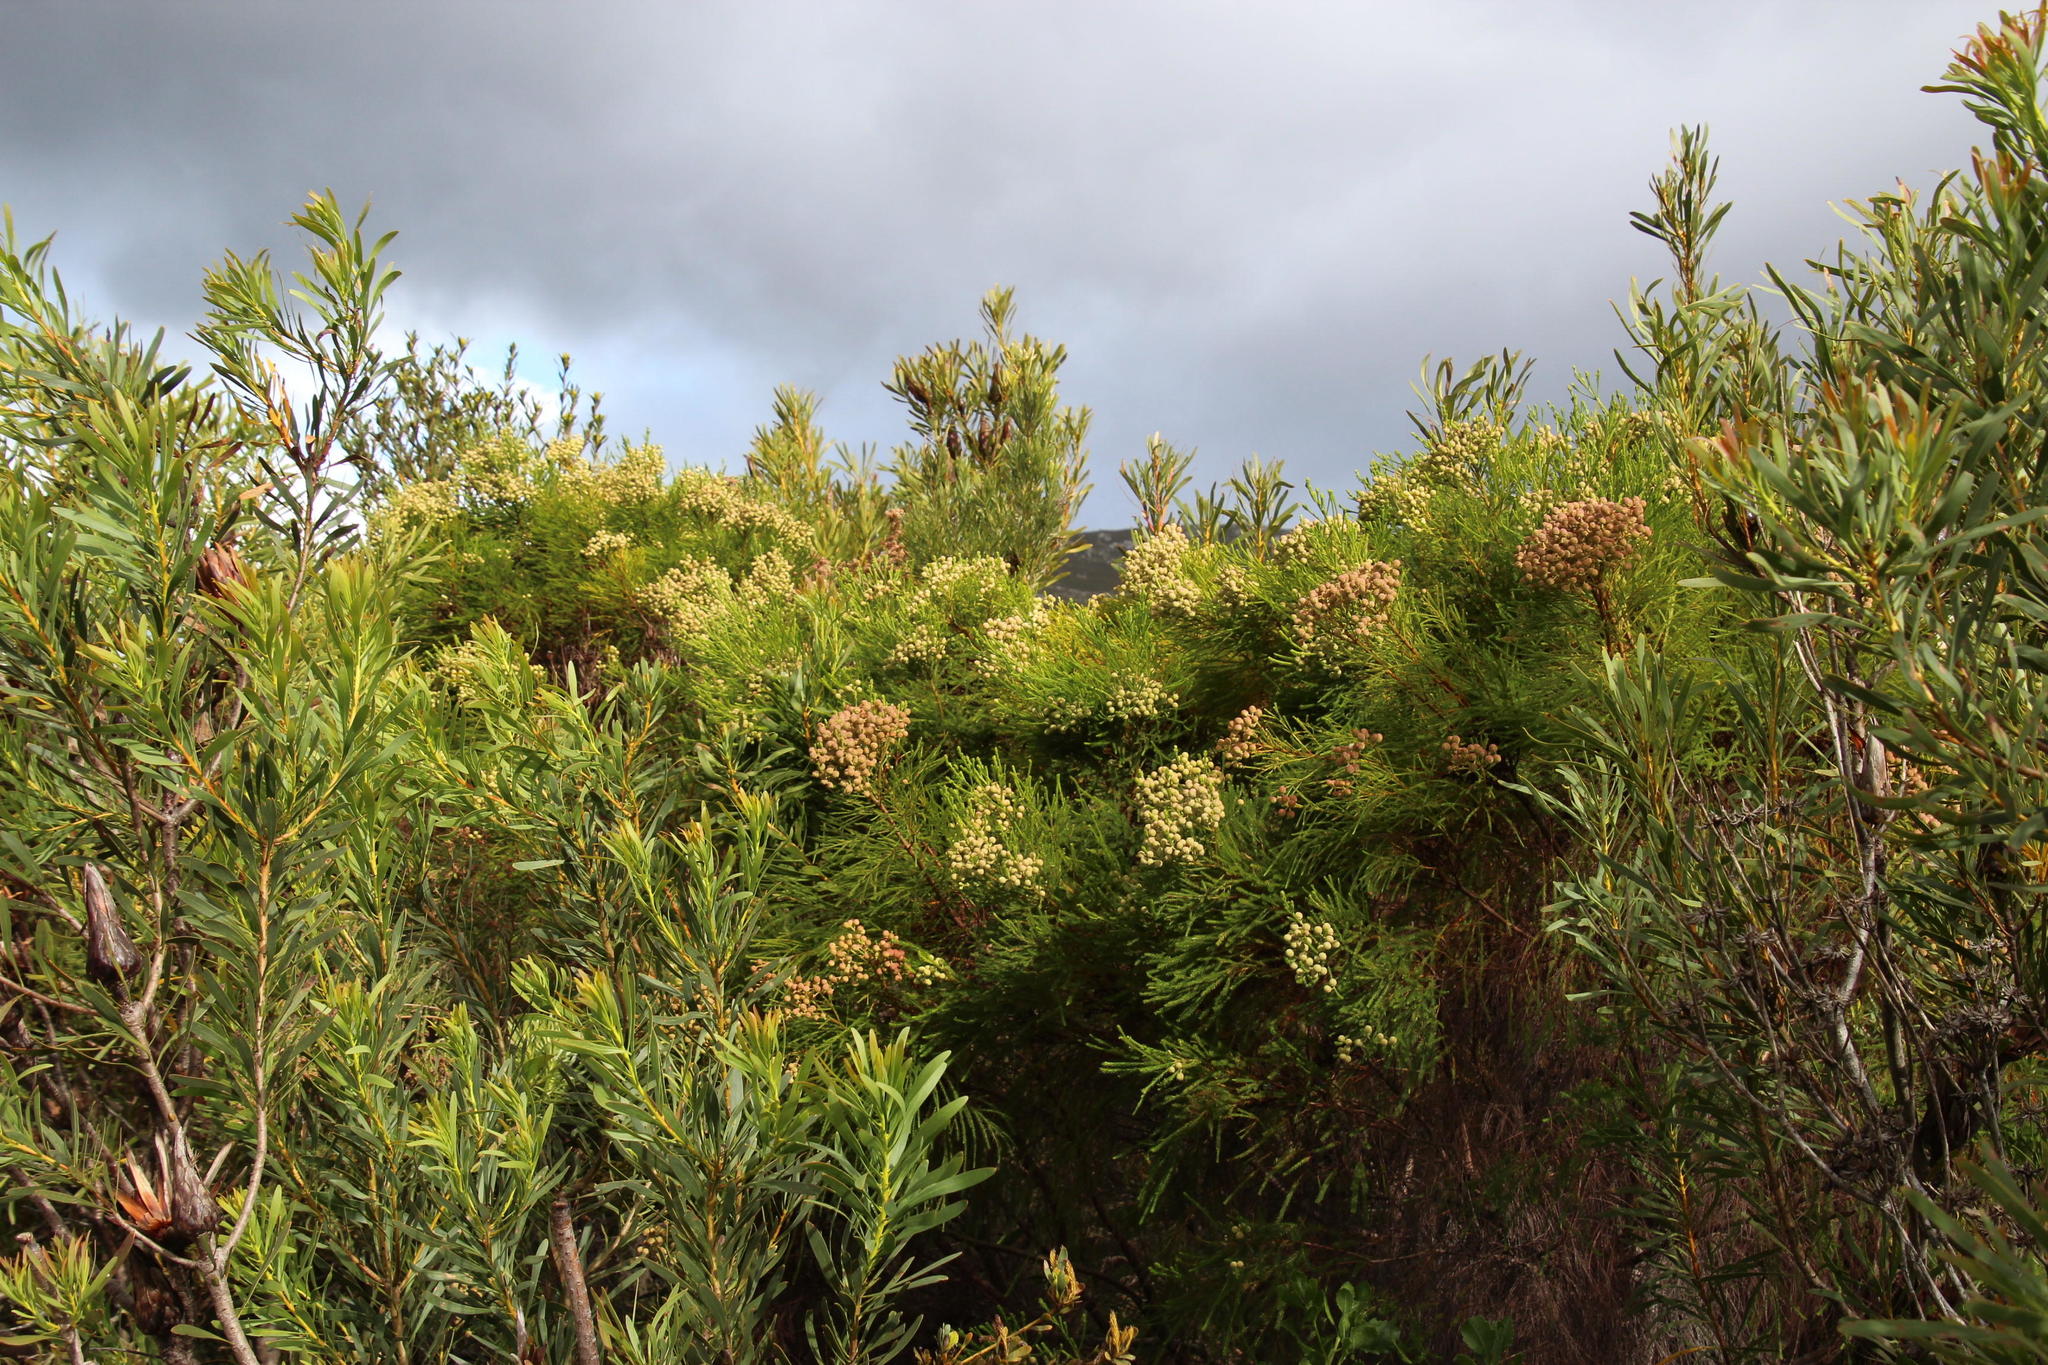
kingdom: Plantae
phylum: Tracheophyta
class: Magnoliopsida
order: Bruniales
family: Bruniaceae
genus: Berzelia
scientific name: Berzelia lanuginosa
